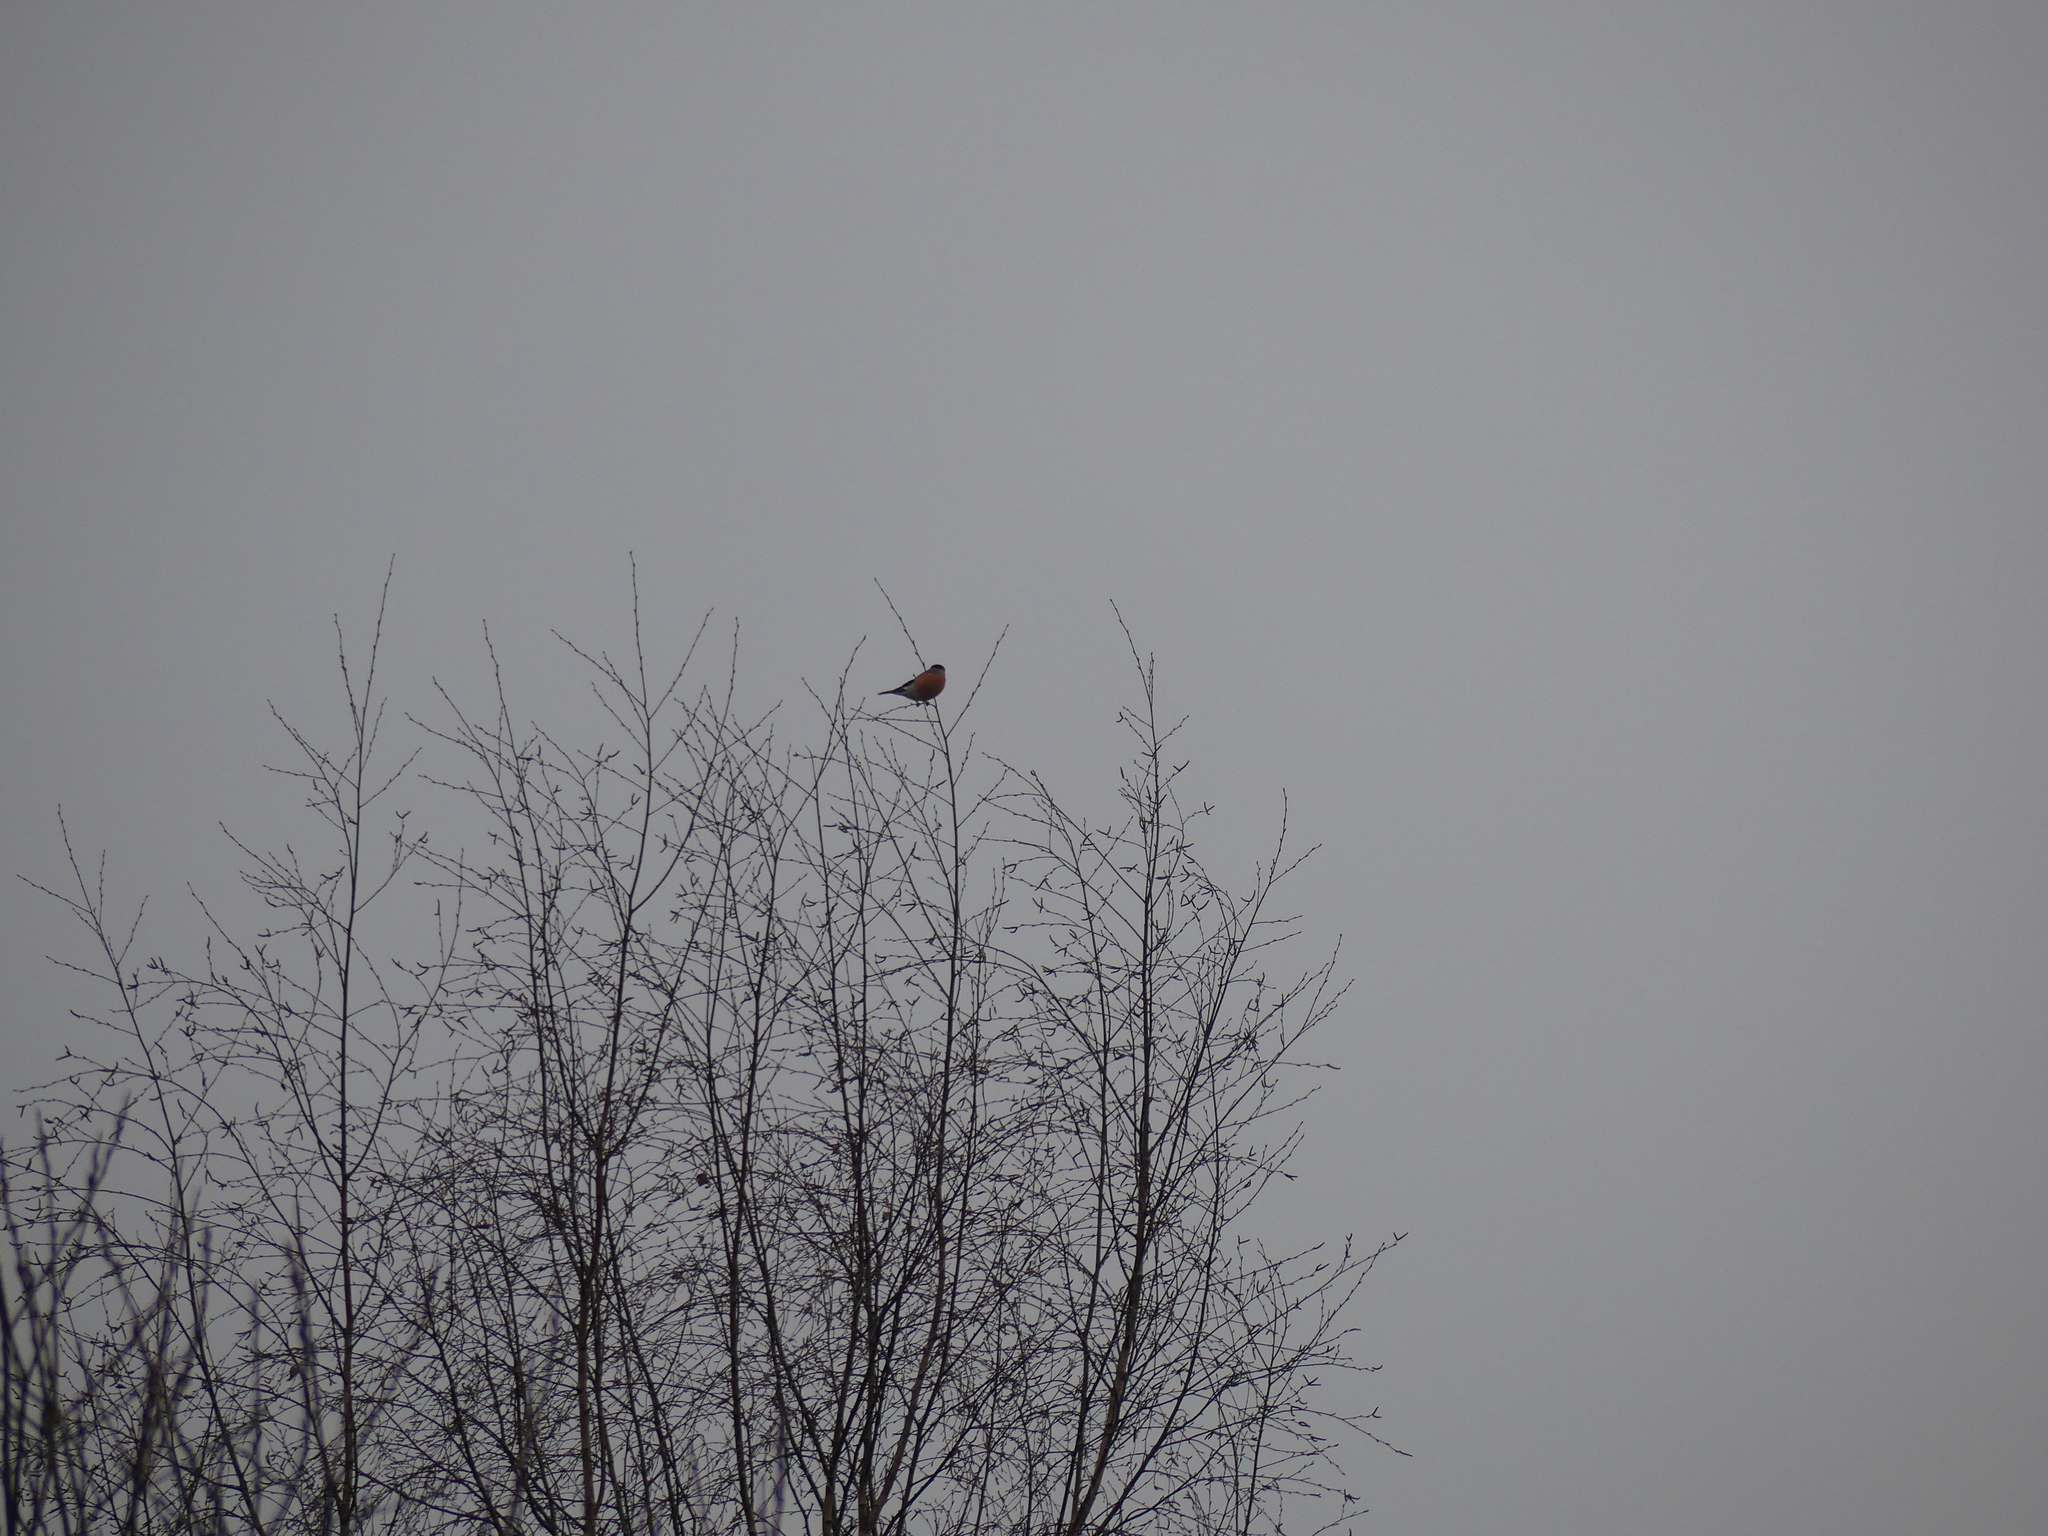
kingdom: Animalia
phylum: Chordata
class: Aves
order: Passeriformes
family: Fringillidae
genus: Pyrrhula
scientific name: Pyrrhula pyrrhula
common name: Eurasian bullfinch
